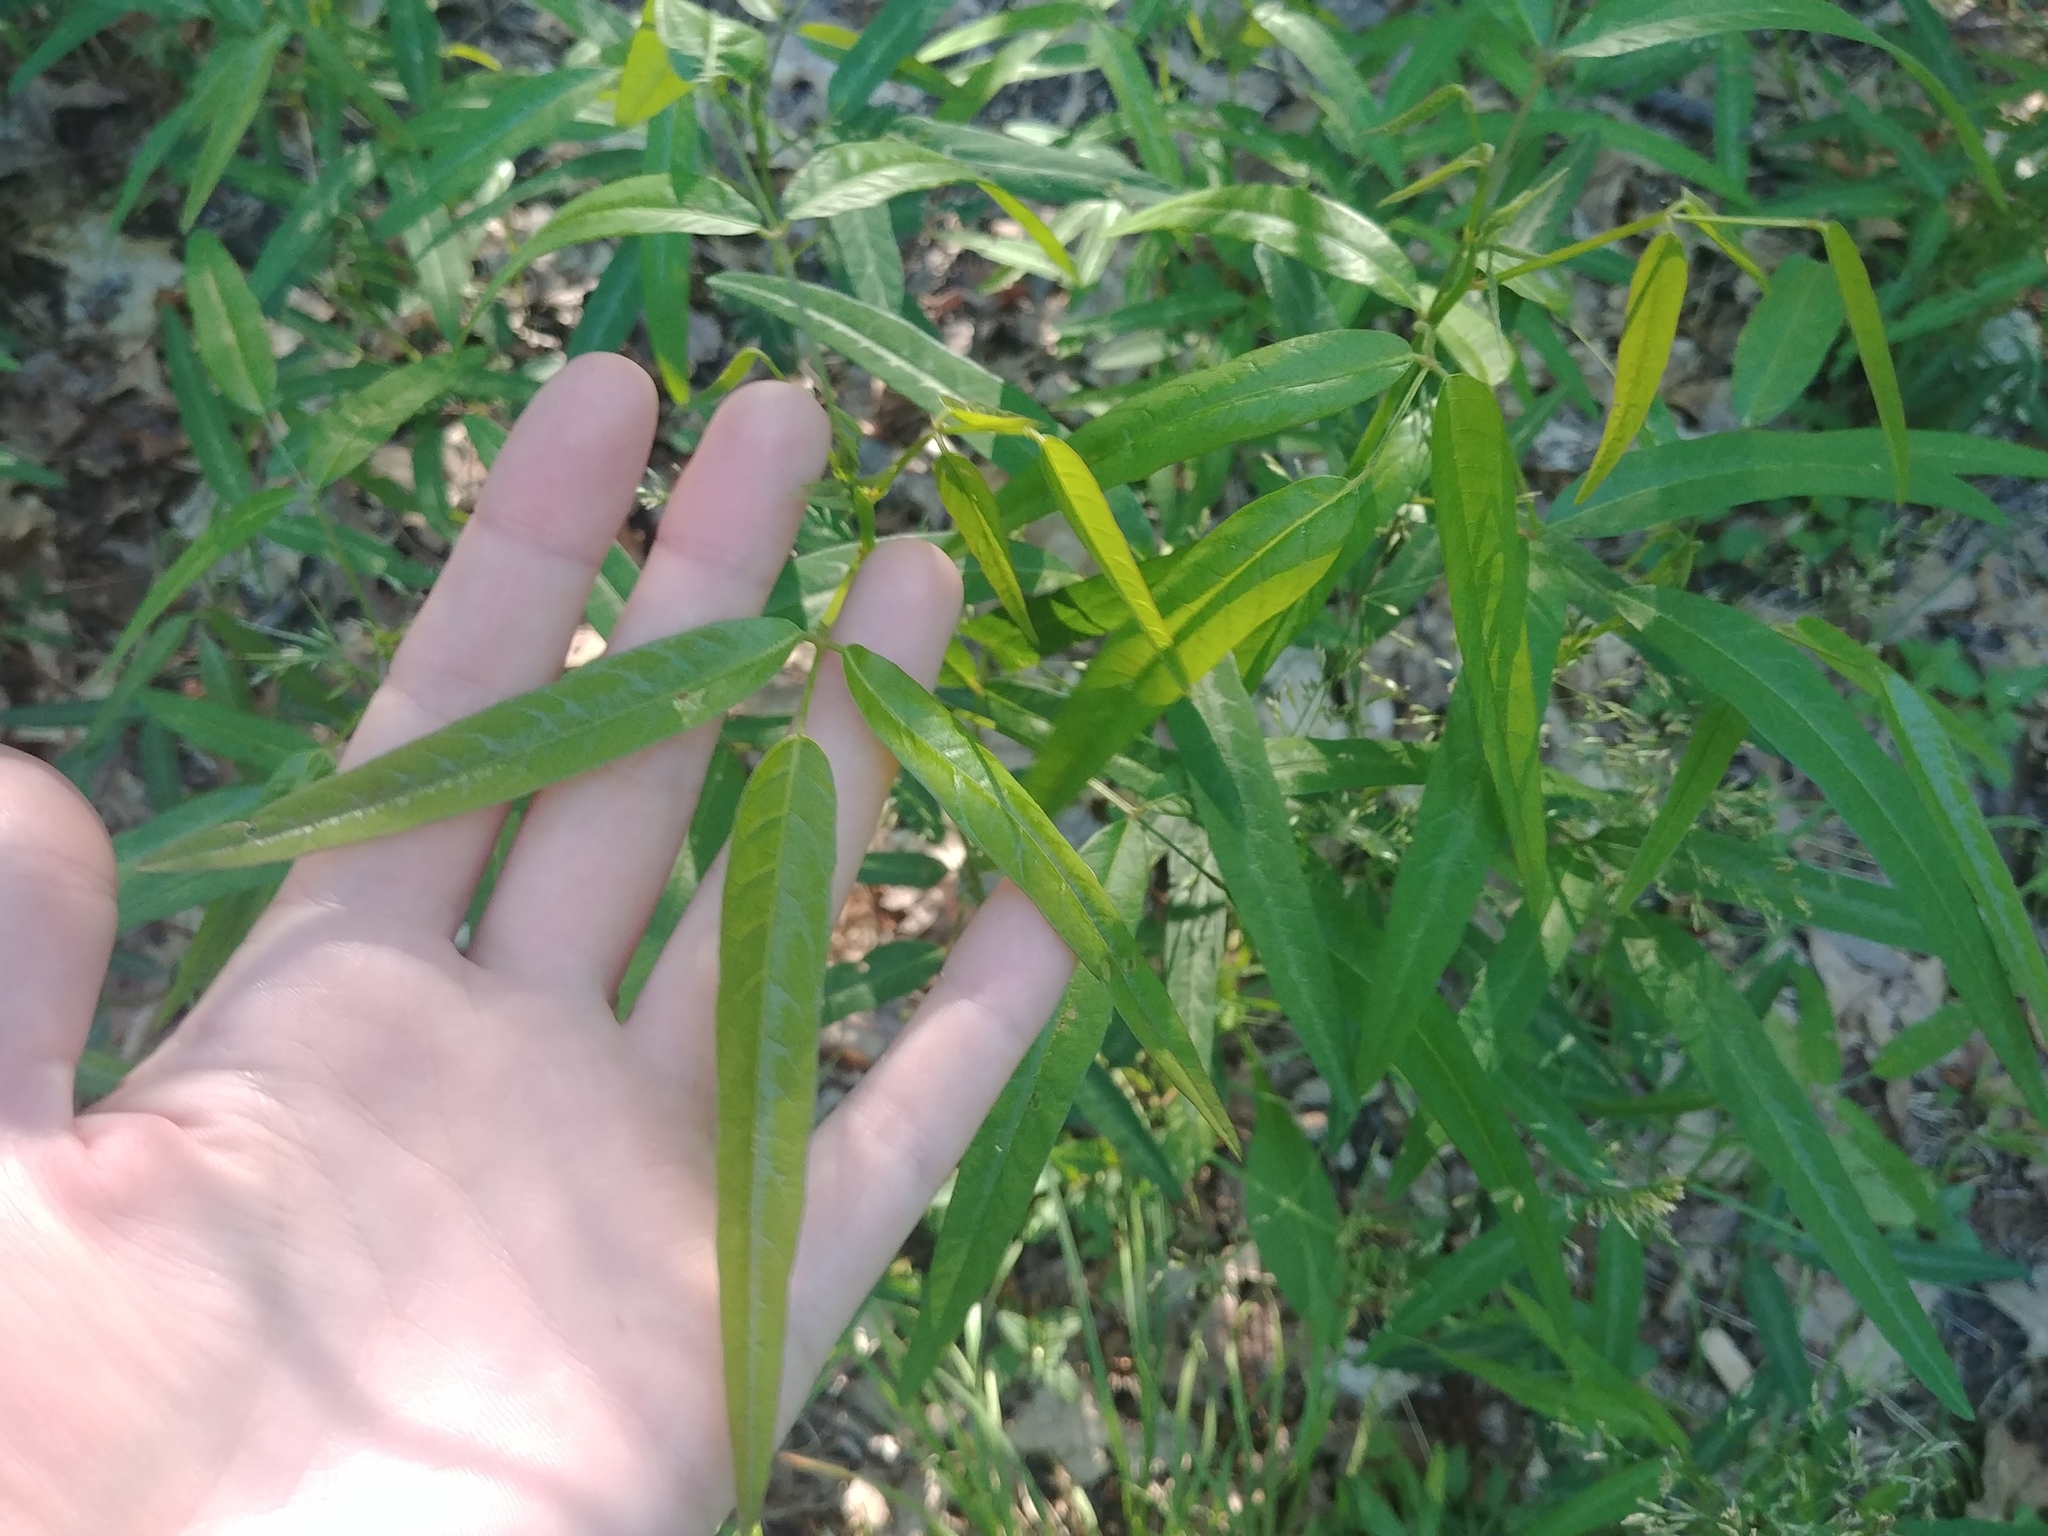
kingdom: Plantae
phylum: Tracheophyta
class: Magnoliopsida
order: Fabales
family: Fabaceae
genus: Desmodium
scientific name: Desmodium paniculatum
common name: Panicled tick-clover
